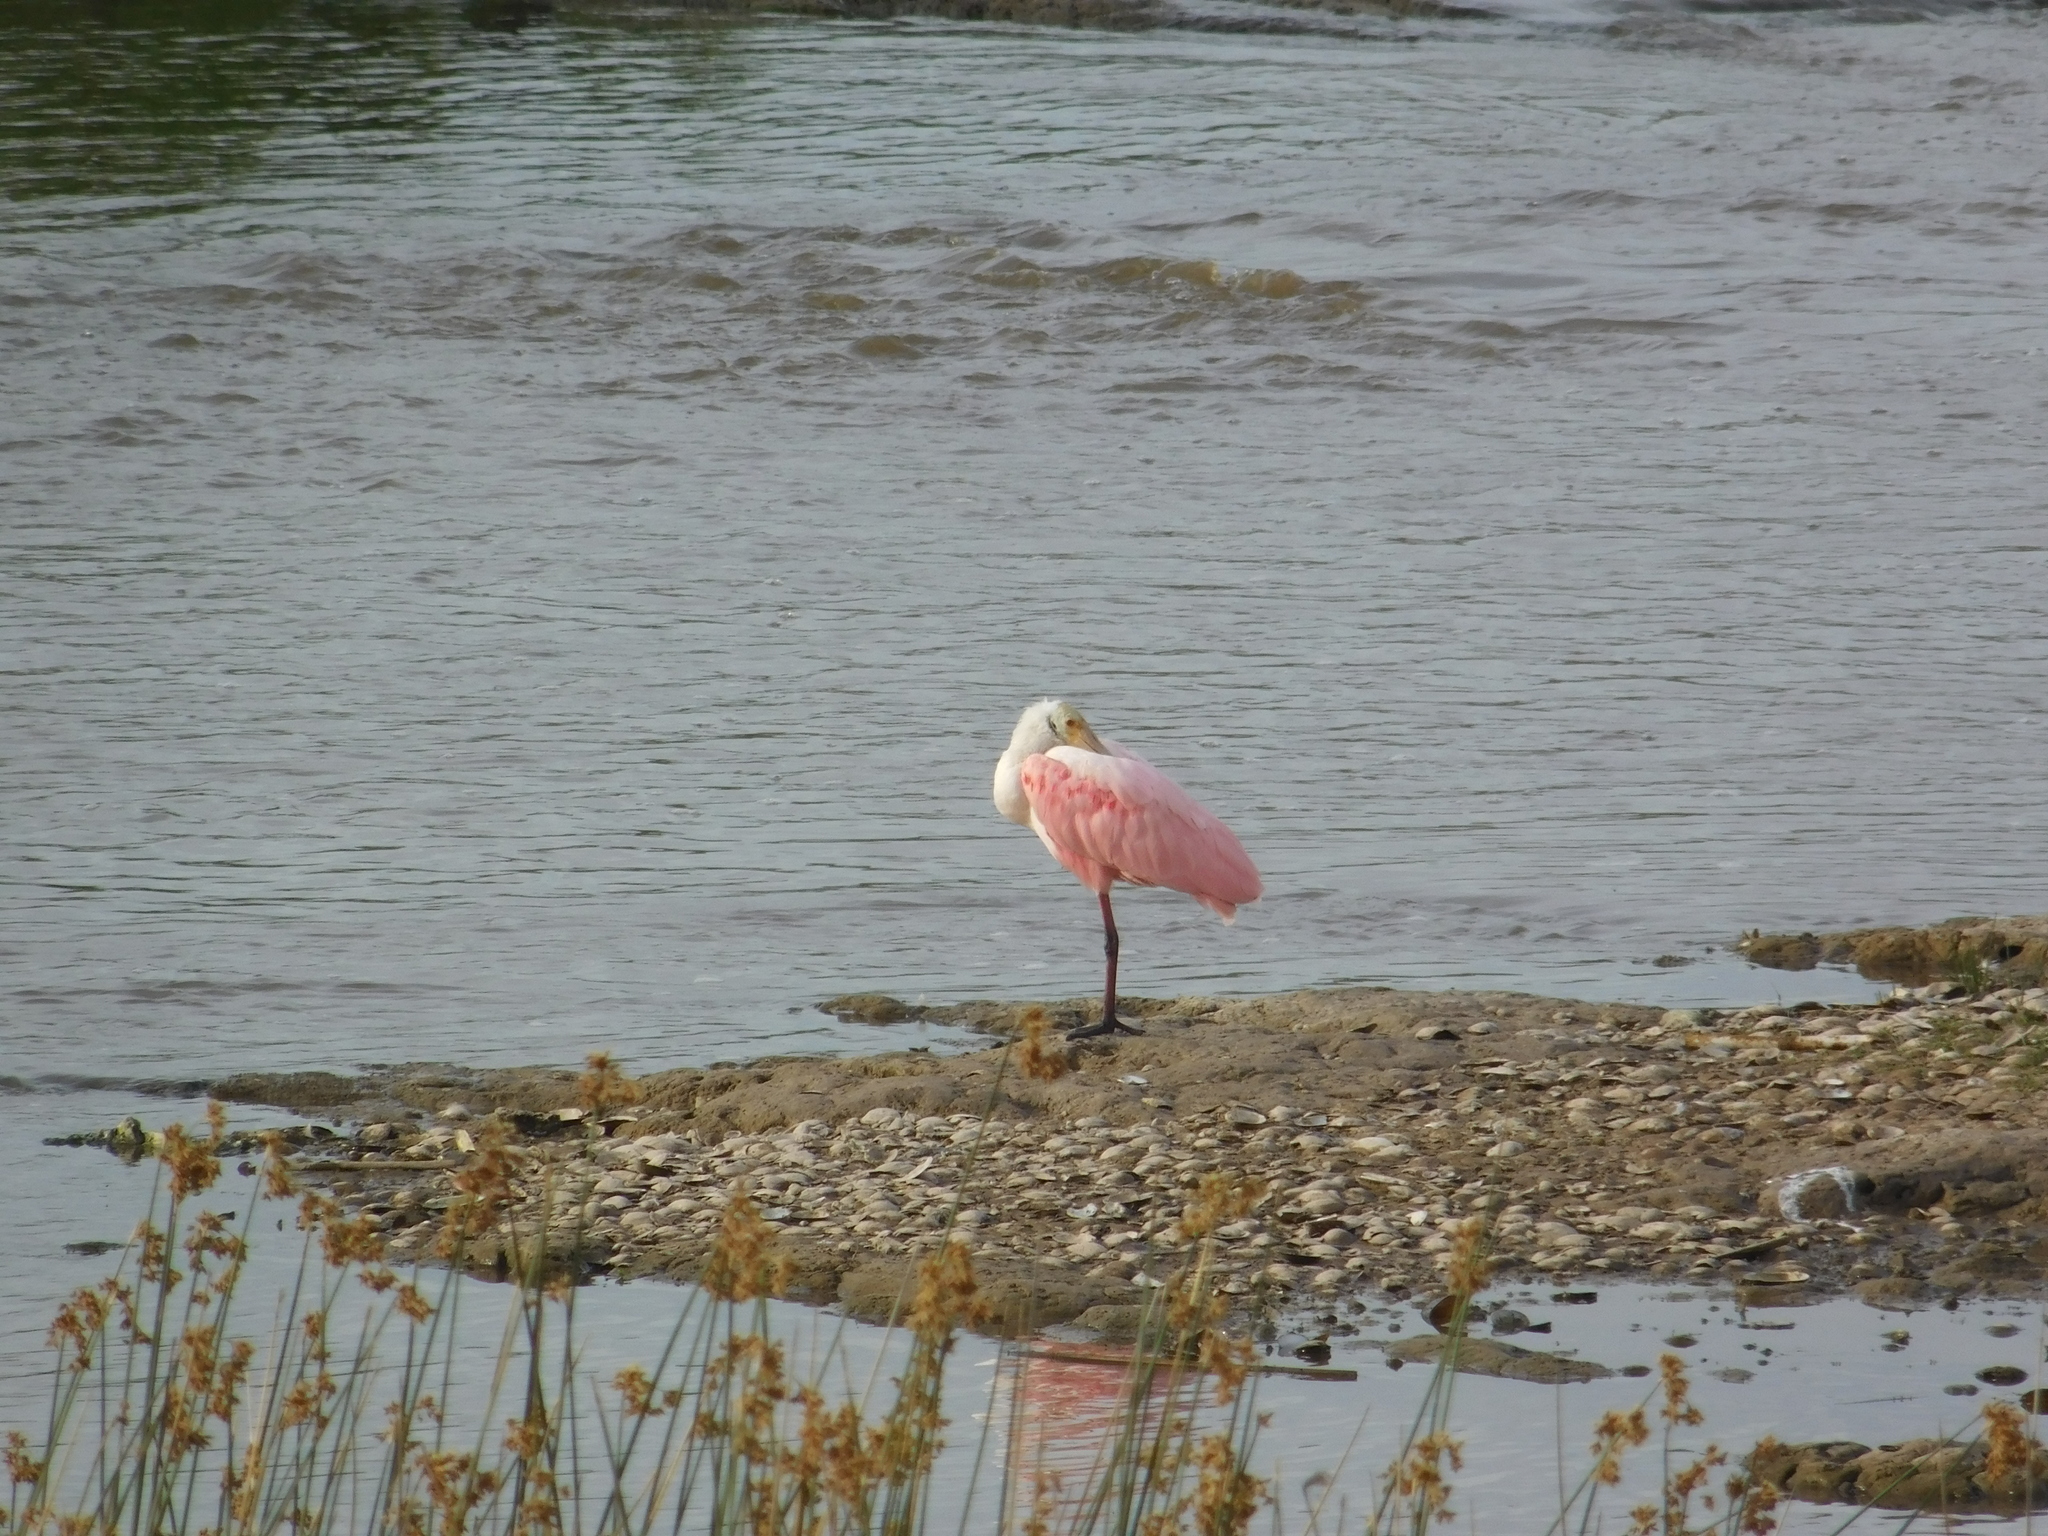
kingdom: Animalia
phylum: Chordata
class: Aves
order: Pelecaniformes
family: Threskiornithidae
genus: Platalea
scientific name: Platalea ajaja
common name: Roseate spoonbill
